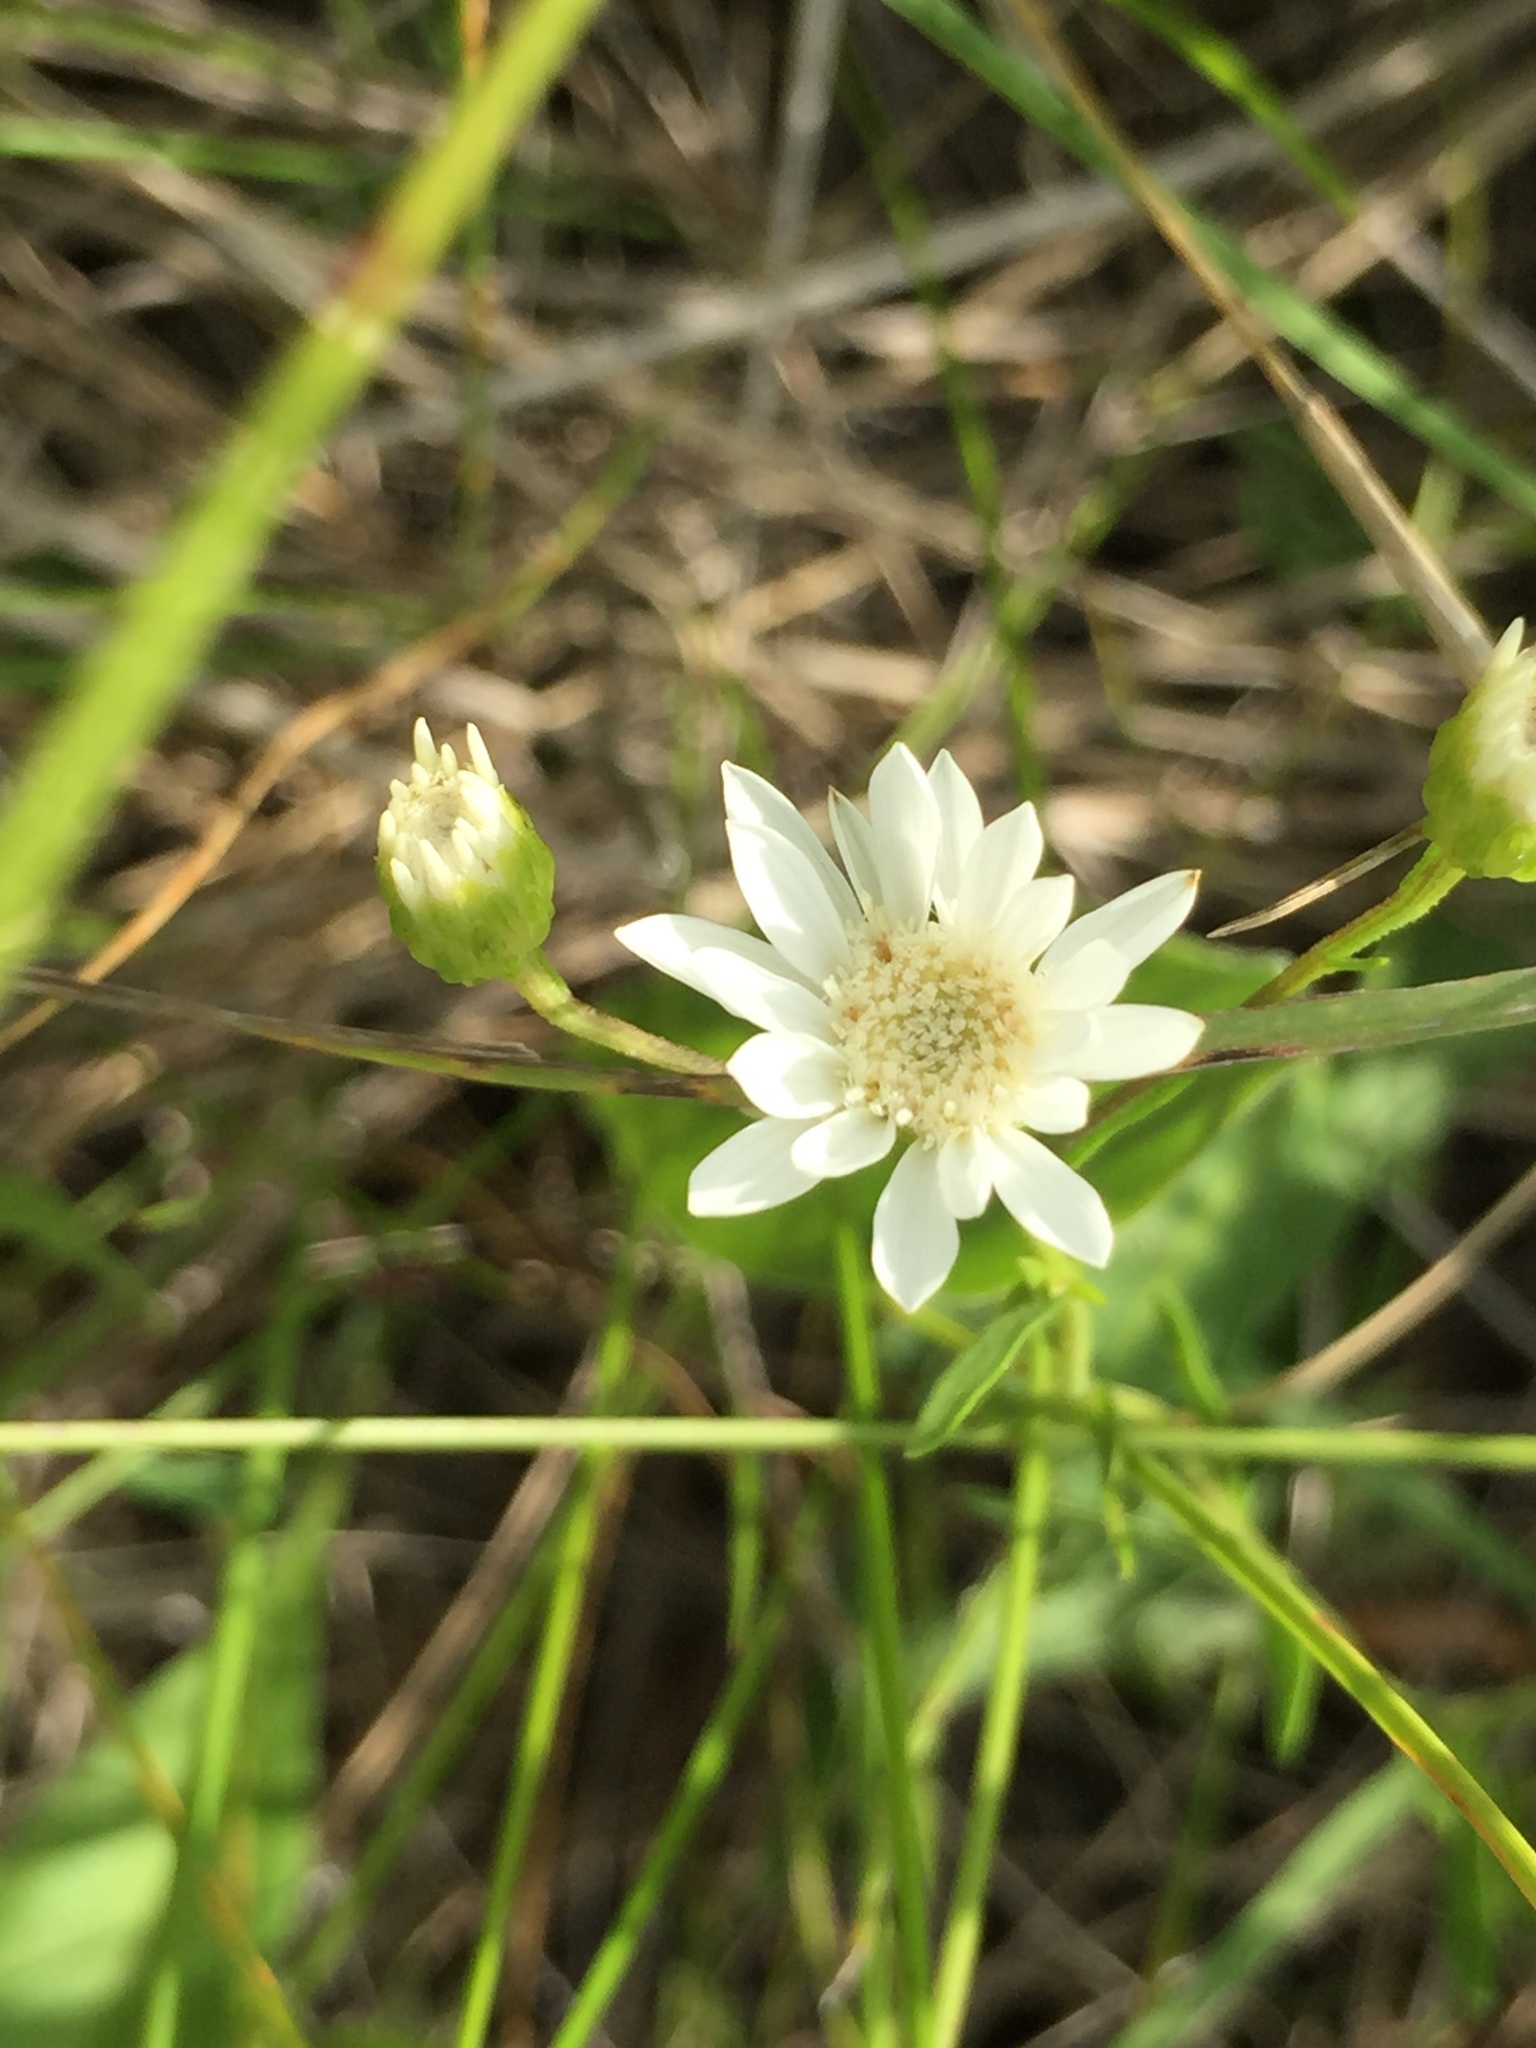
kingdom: Plantae
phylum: Tracheophyta
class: Magnoliopsida
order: Asterales
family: Asteraceae
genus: Solidago
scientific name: Solidago ptarmicoides
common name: White flat-top goldenrod
